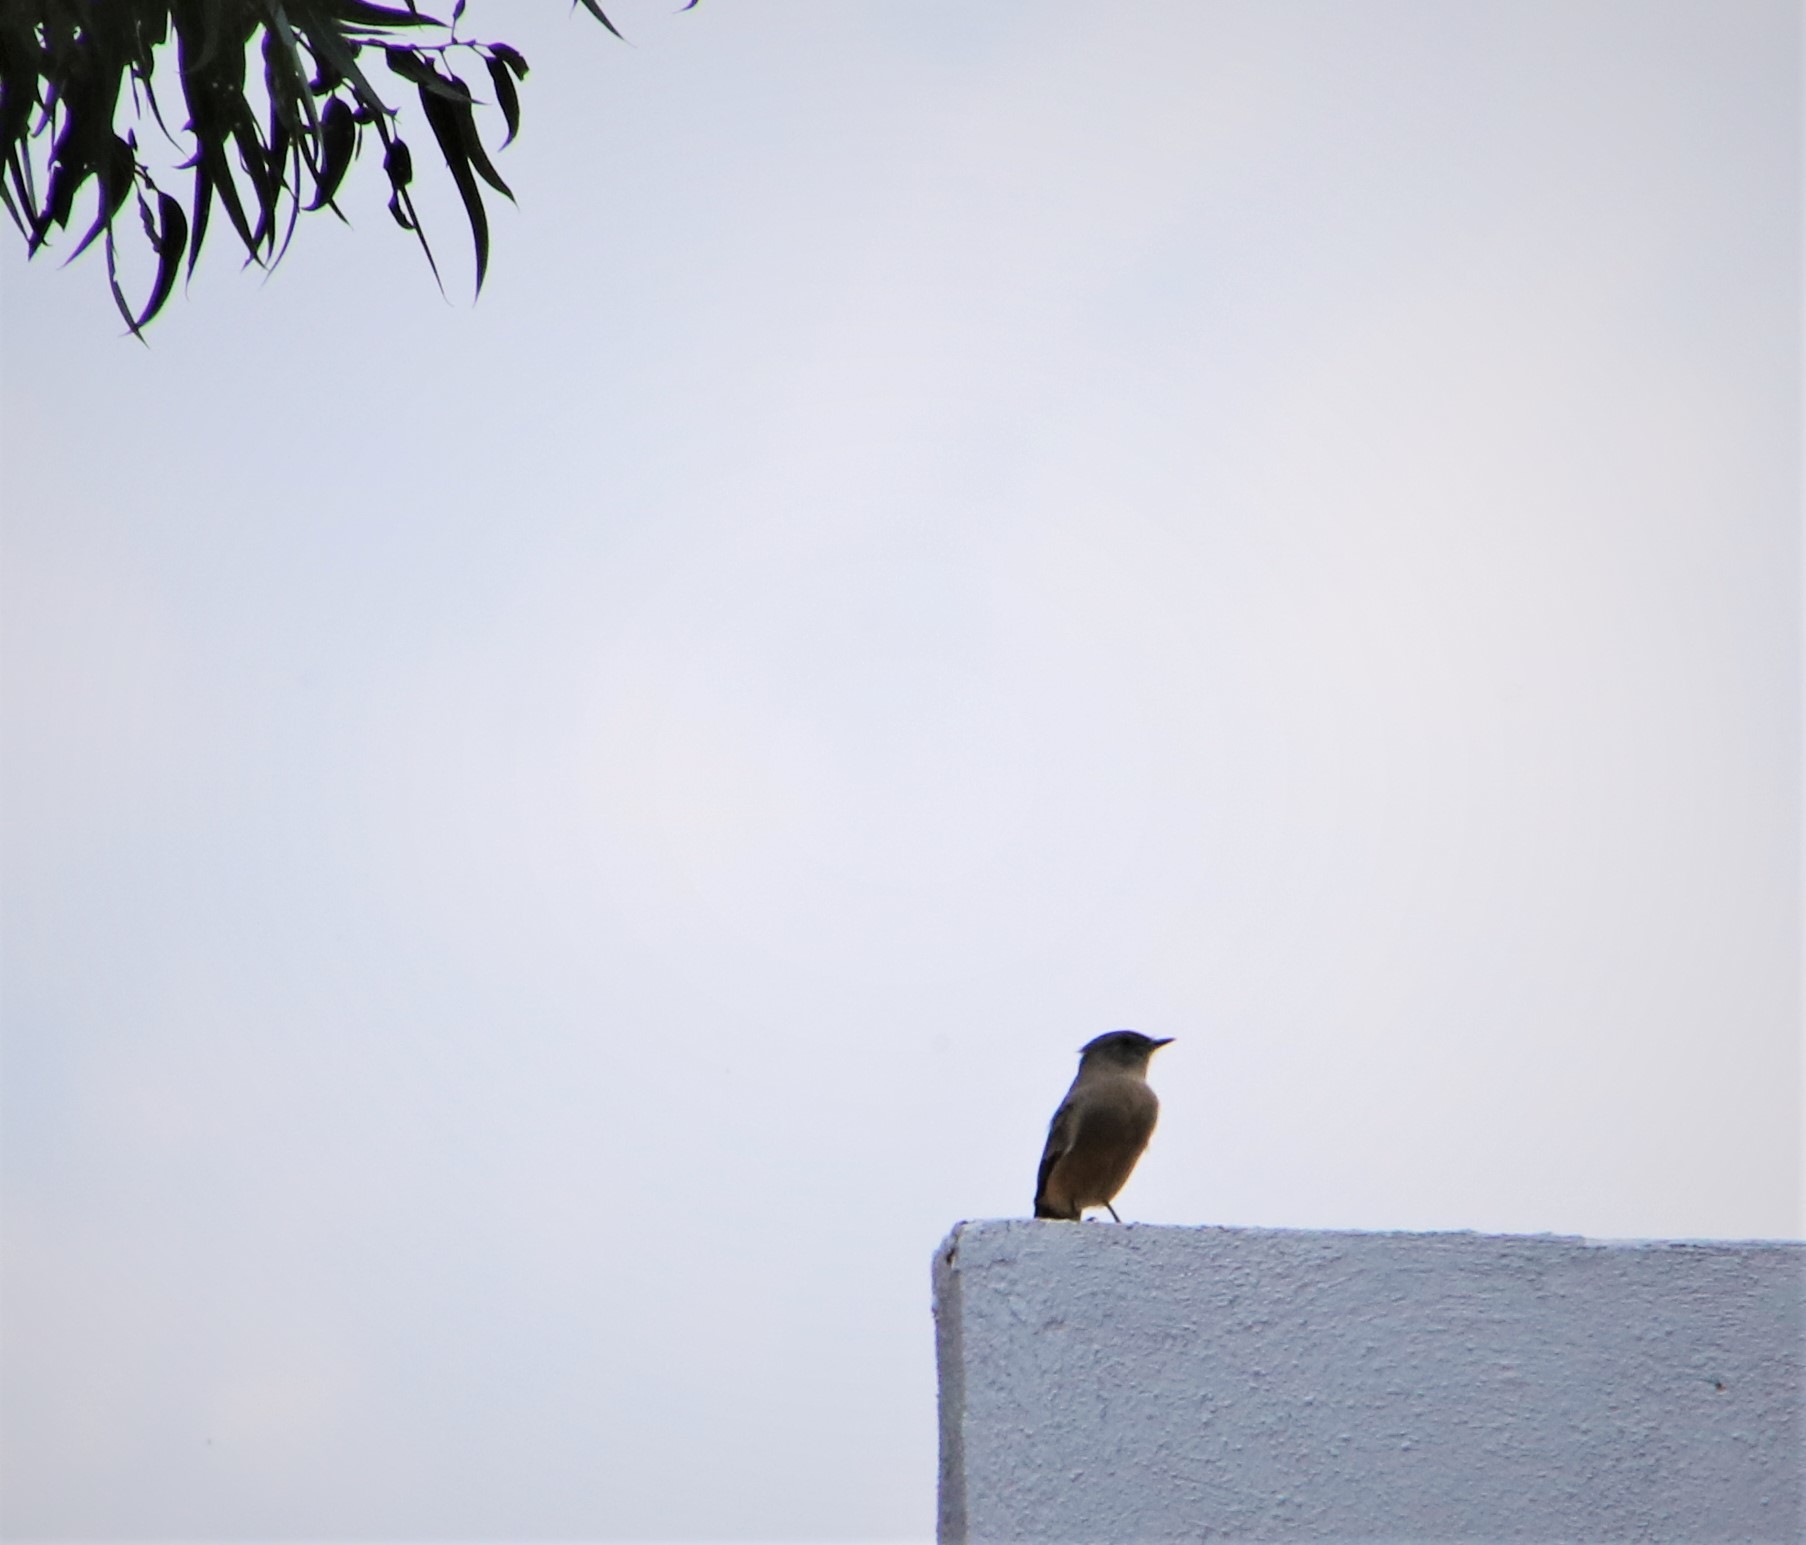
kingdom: Animalia
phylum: Chordata
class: Aves
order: Passeriformes
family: Tyrannidae
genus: Sayornis
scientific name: Sayornis saya
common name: Say's phoebe
